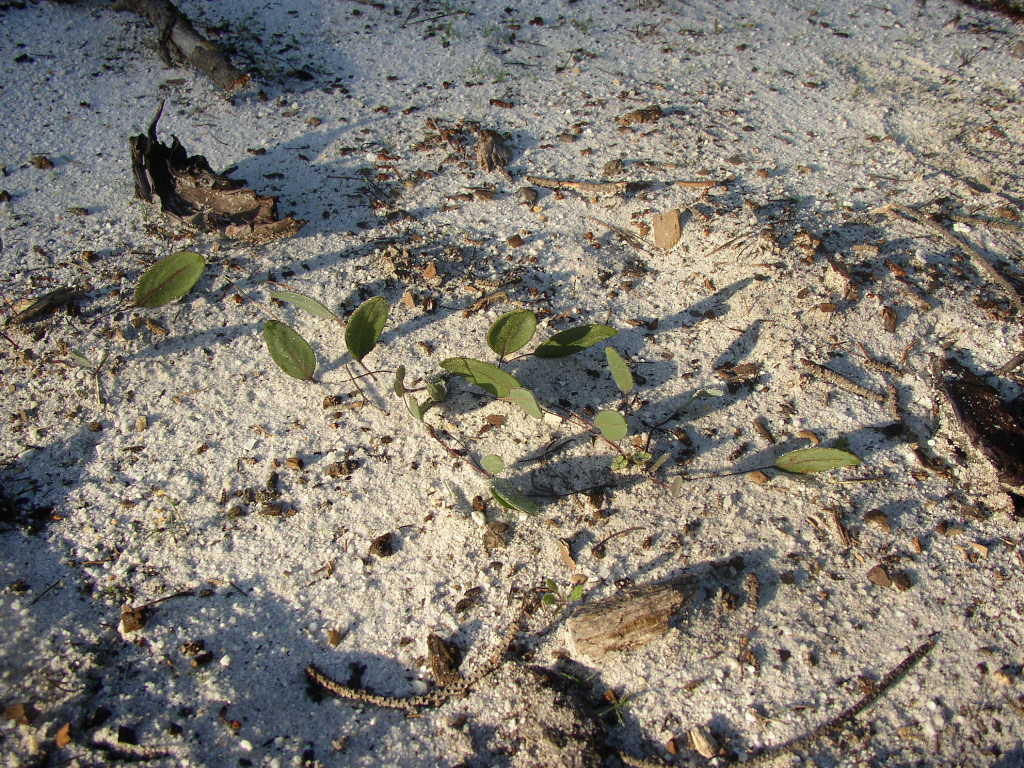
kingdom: Plantae
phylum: Tracheophyta
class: Magnoliopsida
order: Asterales
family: Asteraceae
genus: Othonna
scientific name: Othonna bulbosa
